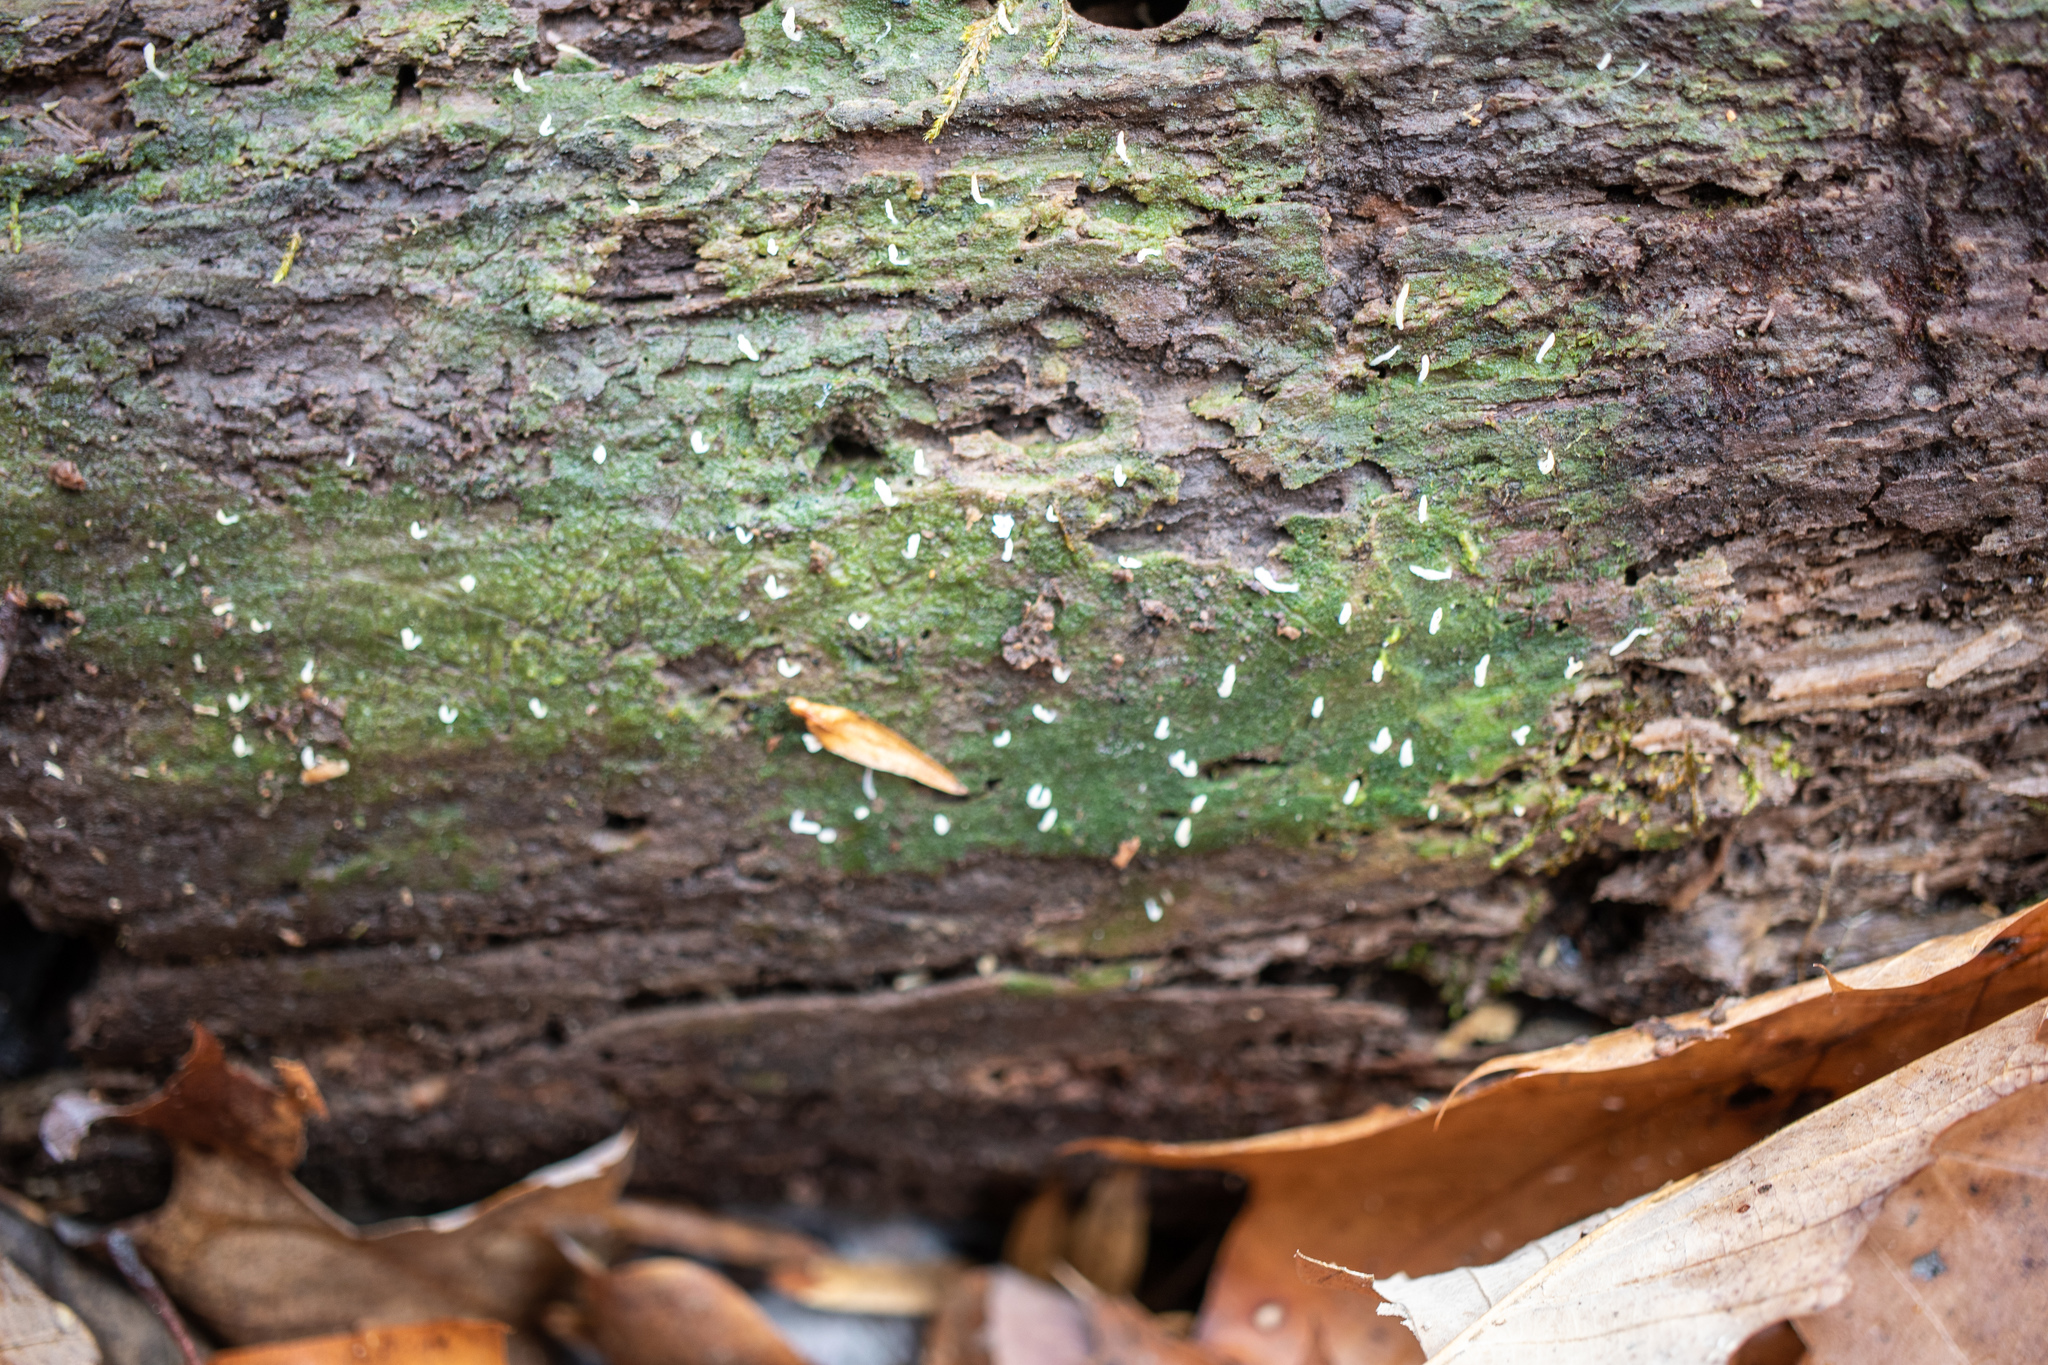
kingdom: Fungi
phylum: Basidiomycota
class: Agaricomycetes
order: Cantharellales
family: Hydnaceae
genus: Multiclavula
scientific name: Multiclavula mucida
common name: White green-algae coral
